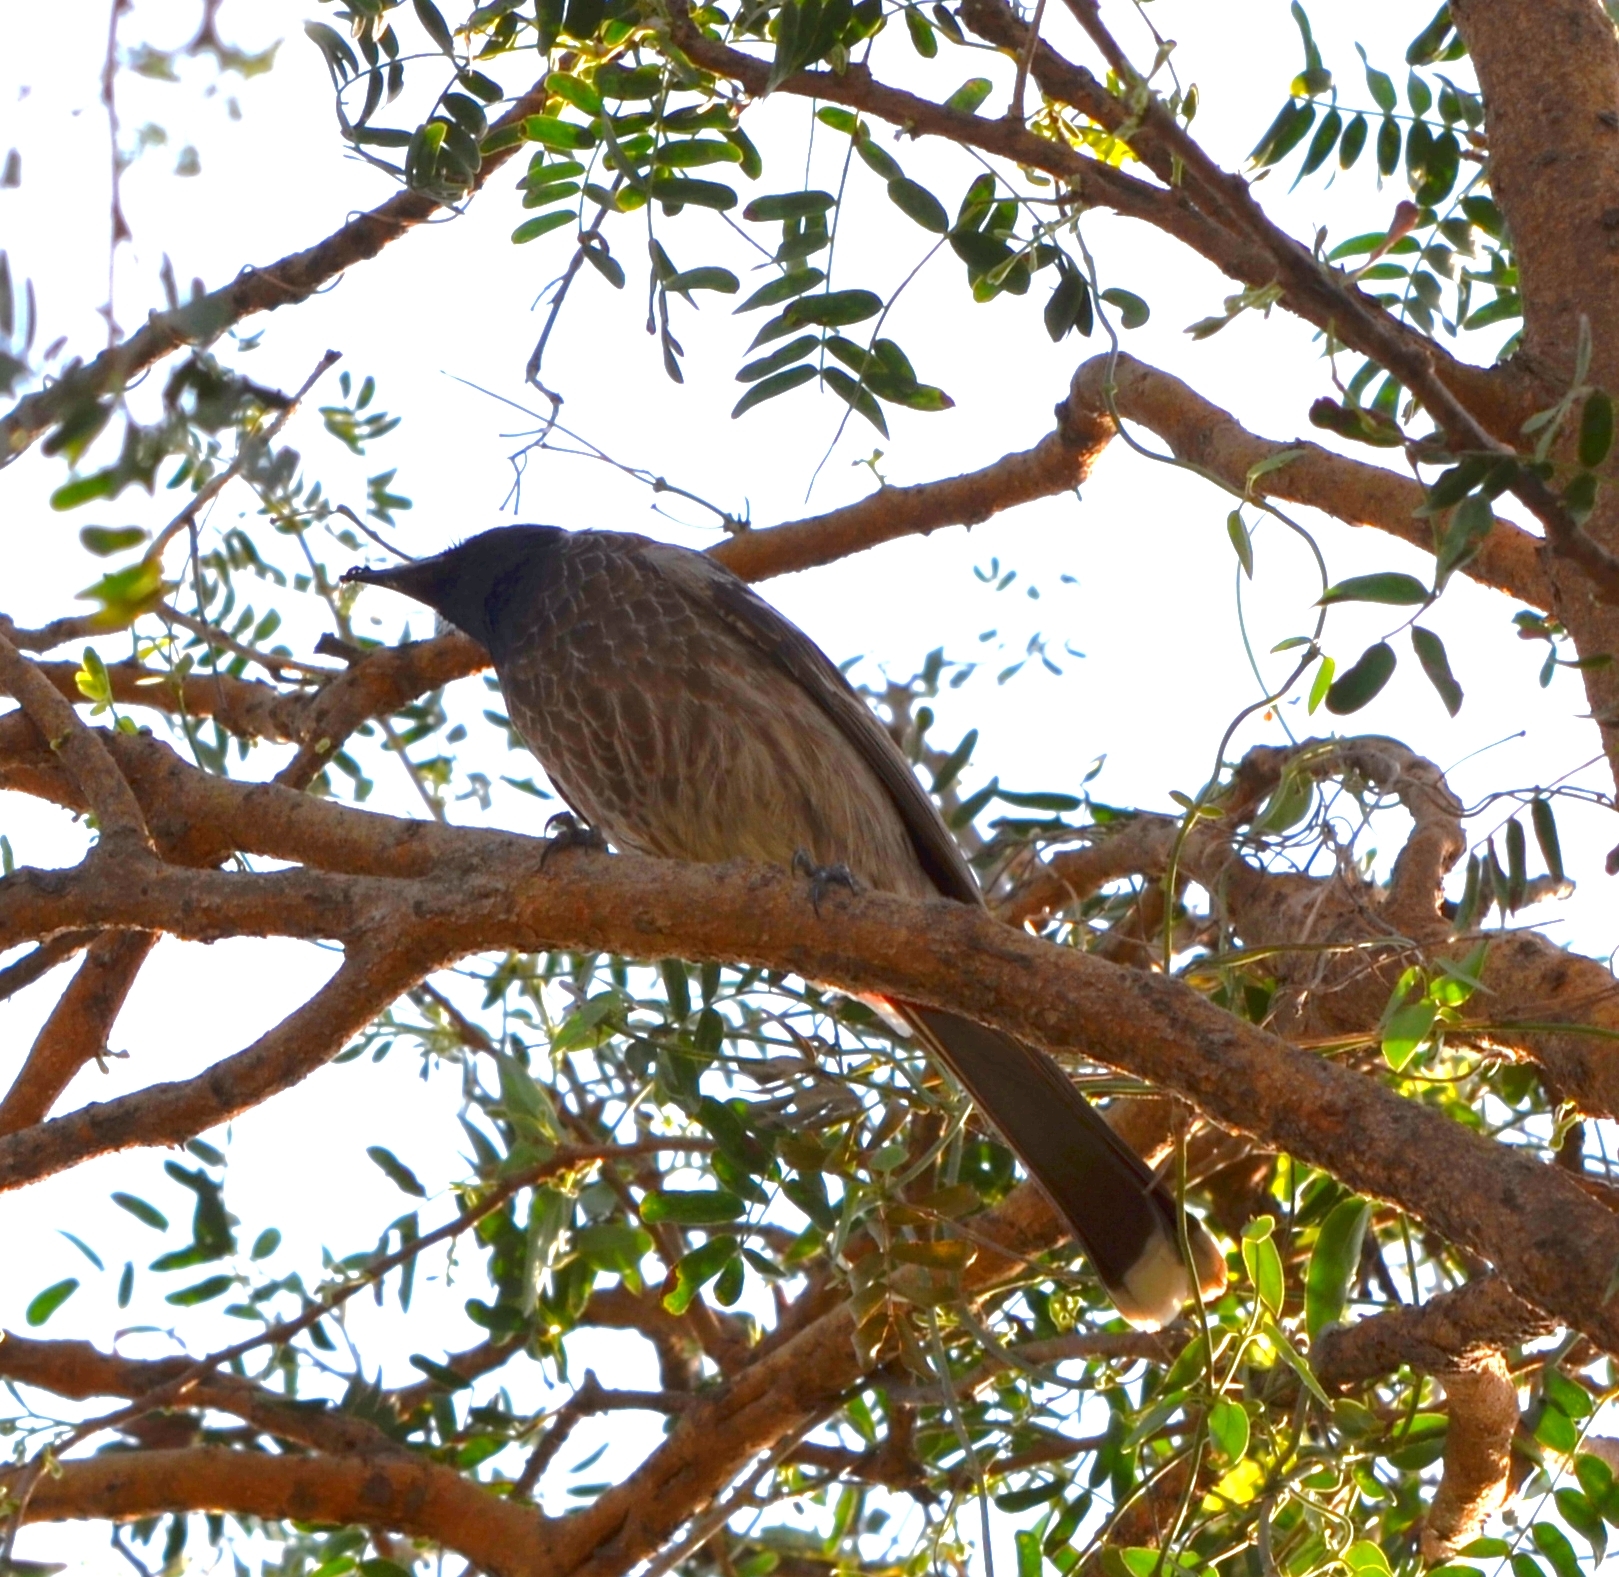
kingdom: Animalia
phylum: Chordata
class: Aves
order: Passeriformes
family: Pycnonotidae
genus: Pycnonotus
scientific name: Pycnonotus cafer
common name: Red-vented bulbul
